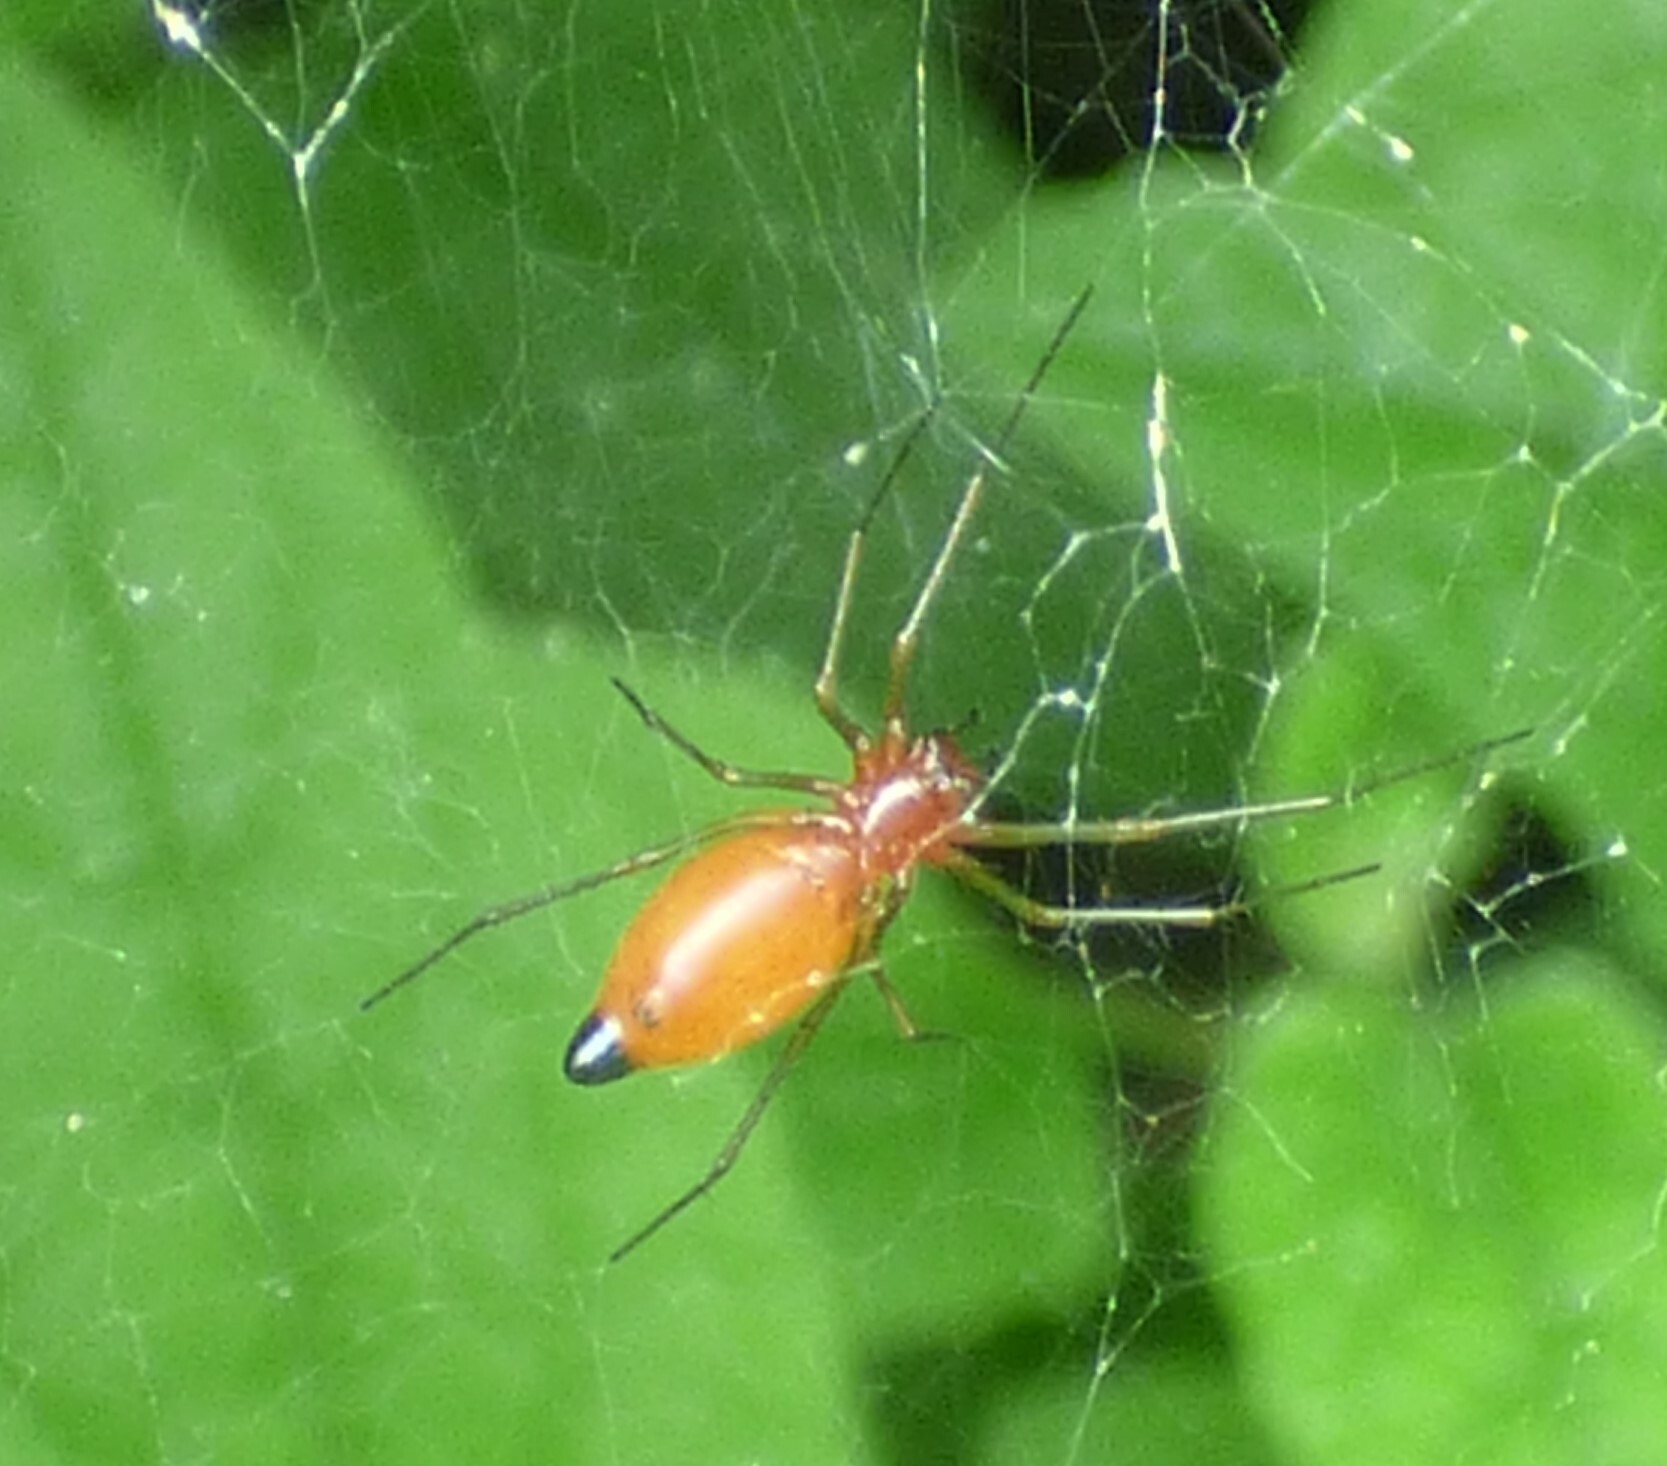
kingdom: Animalia
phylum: Arthropoda
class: Arachnida
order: Araneae
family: Linyphiidae
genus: Florinda
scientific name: Florinda coccinea
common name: Black-tailed red sheetweaver
